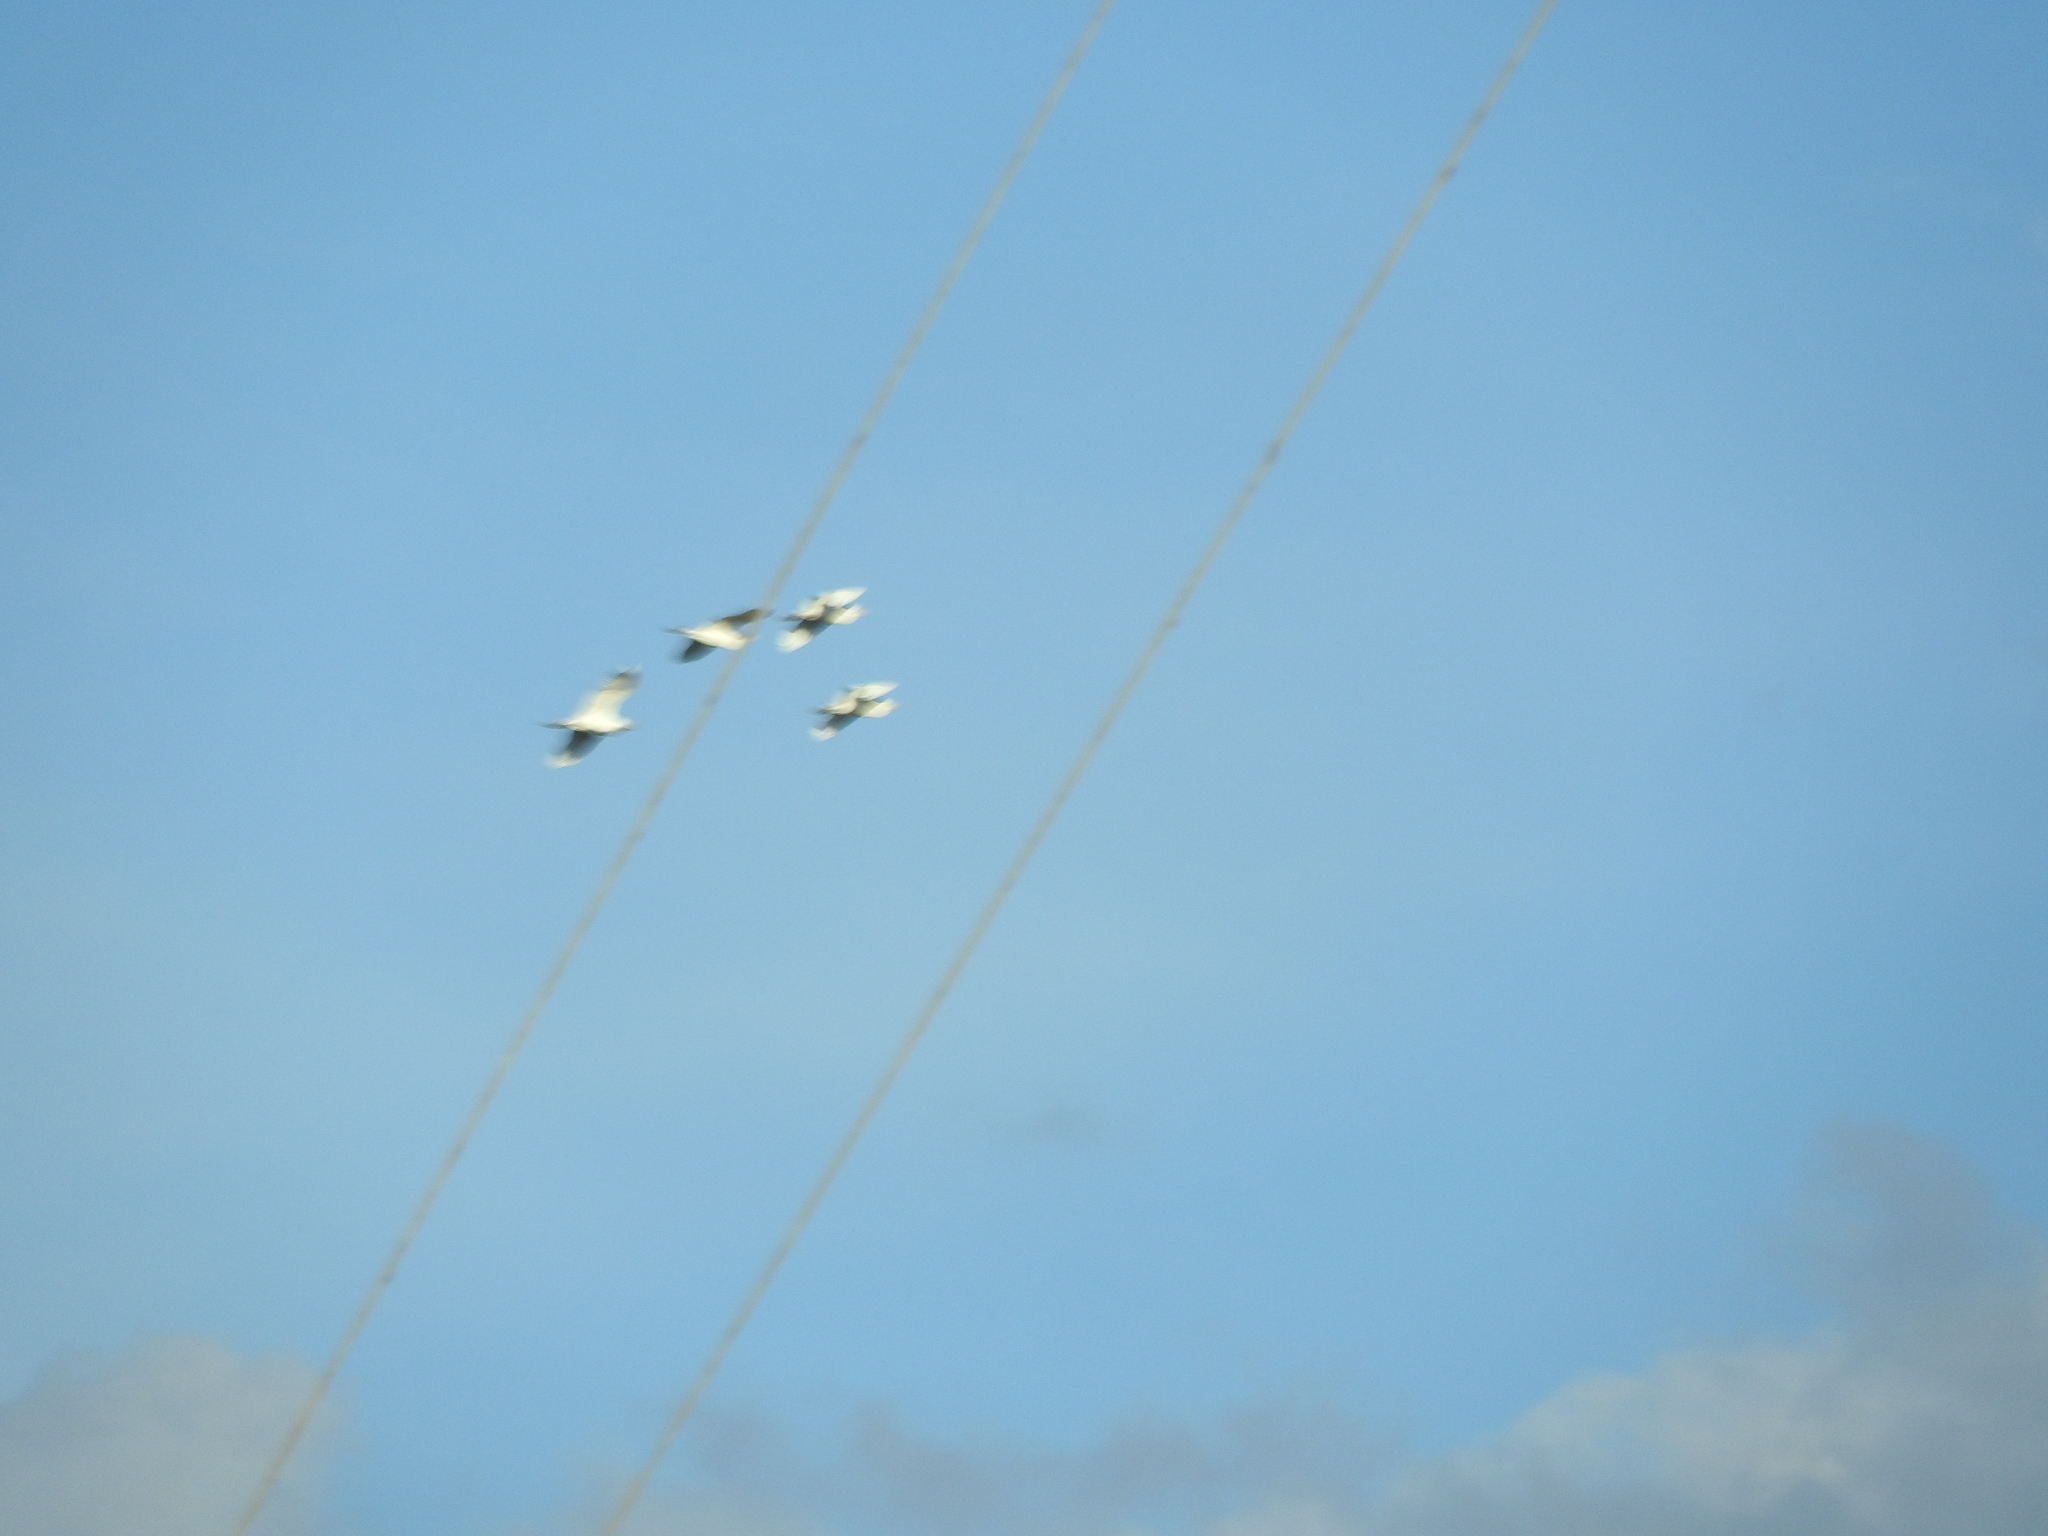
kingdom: Animalia
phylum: Chordata
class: Aves
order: Pelecaniformes
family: Ardeidae
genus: Bubulcus
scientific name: Bubulcus ibis
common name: Cattle egret
